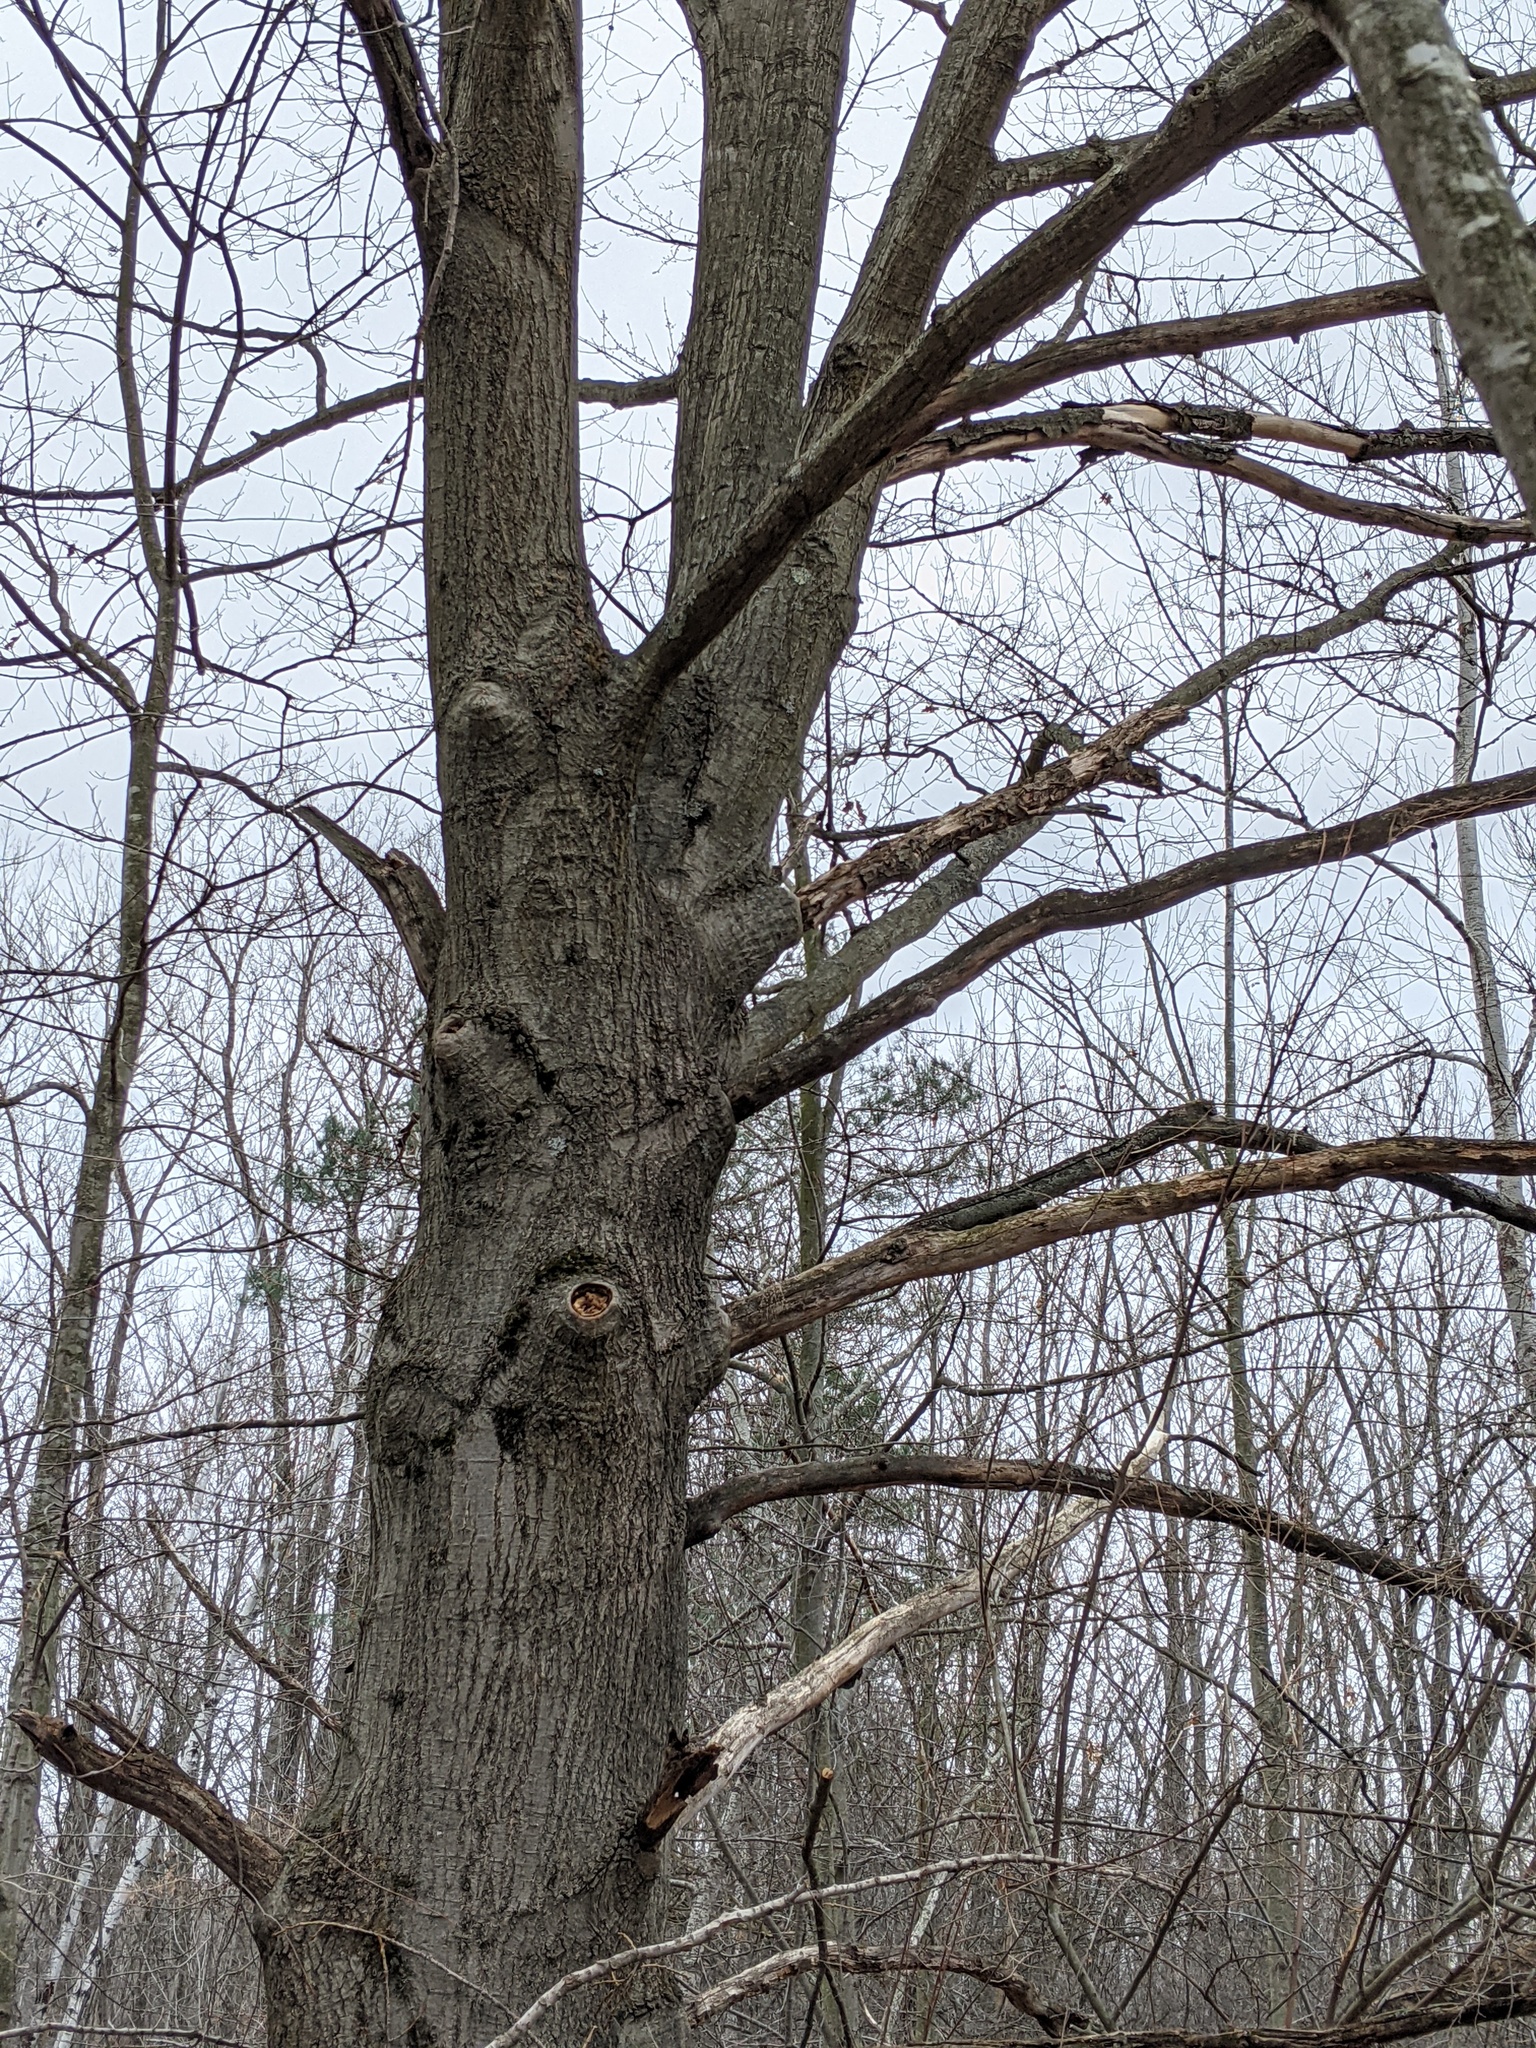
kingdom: Plantae
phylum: Tracheophyta
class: Magnoliopsida
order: Fagales
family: Fagaceae
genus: Quercus
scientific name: Quercus rubra
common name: Red oak
